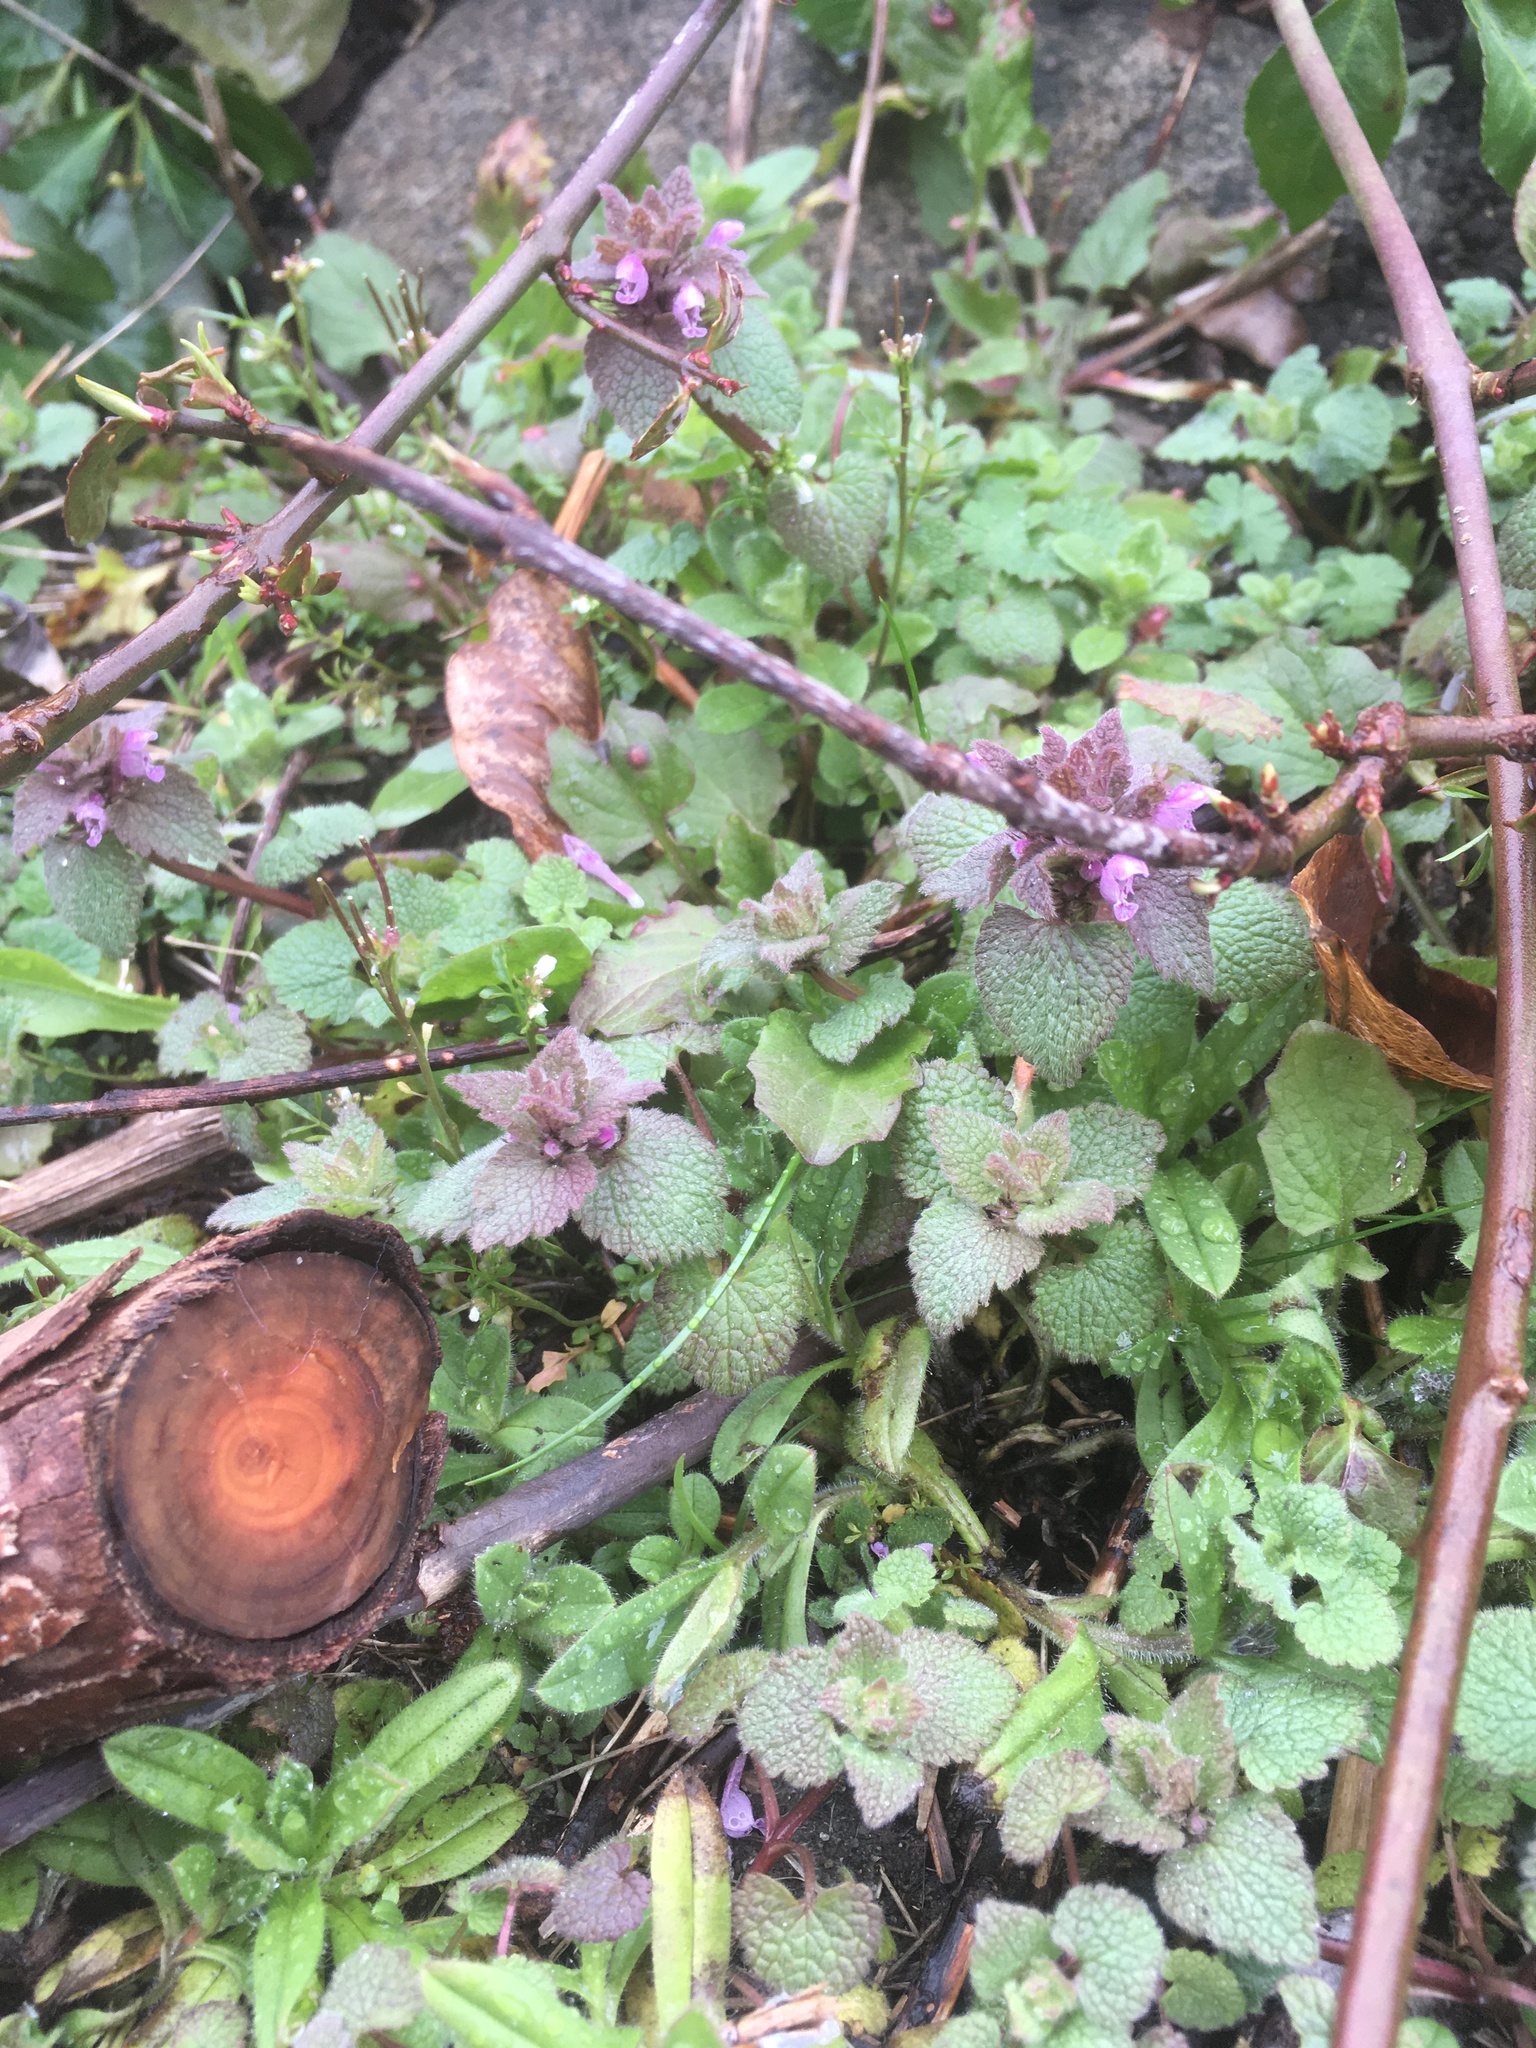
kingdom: Plantae
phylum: Tracheophyta
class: Magnoliopsida
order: Lamiales
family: Lamiaceae
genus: Lamium
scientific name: Lamium purpureum
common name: Red dead-nettle
